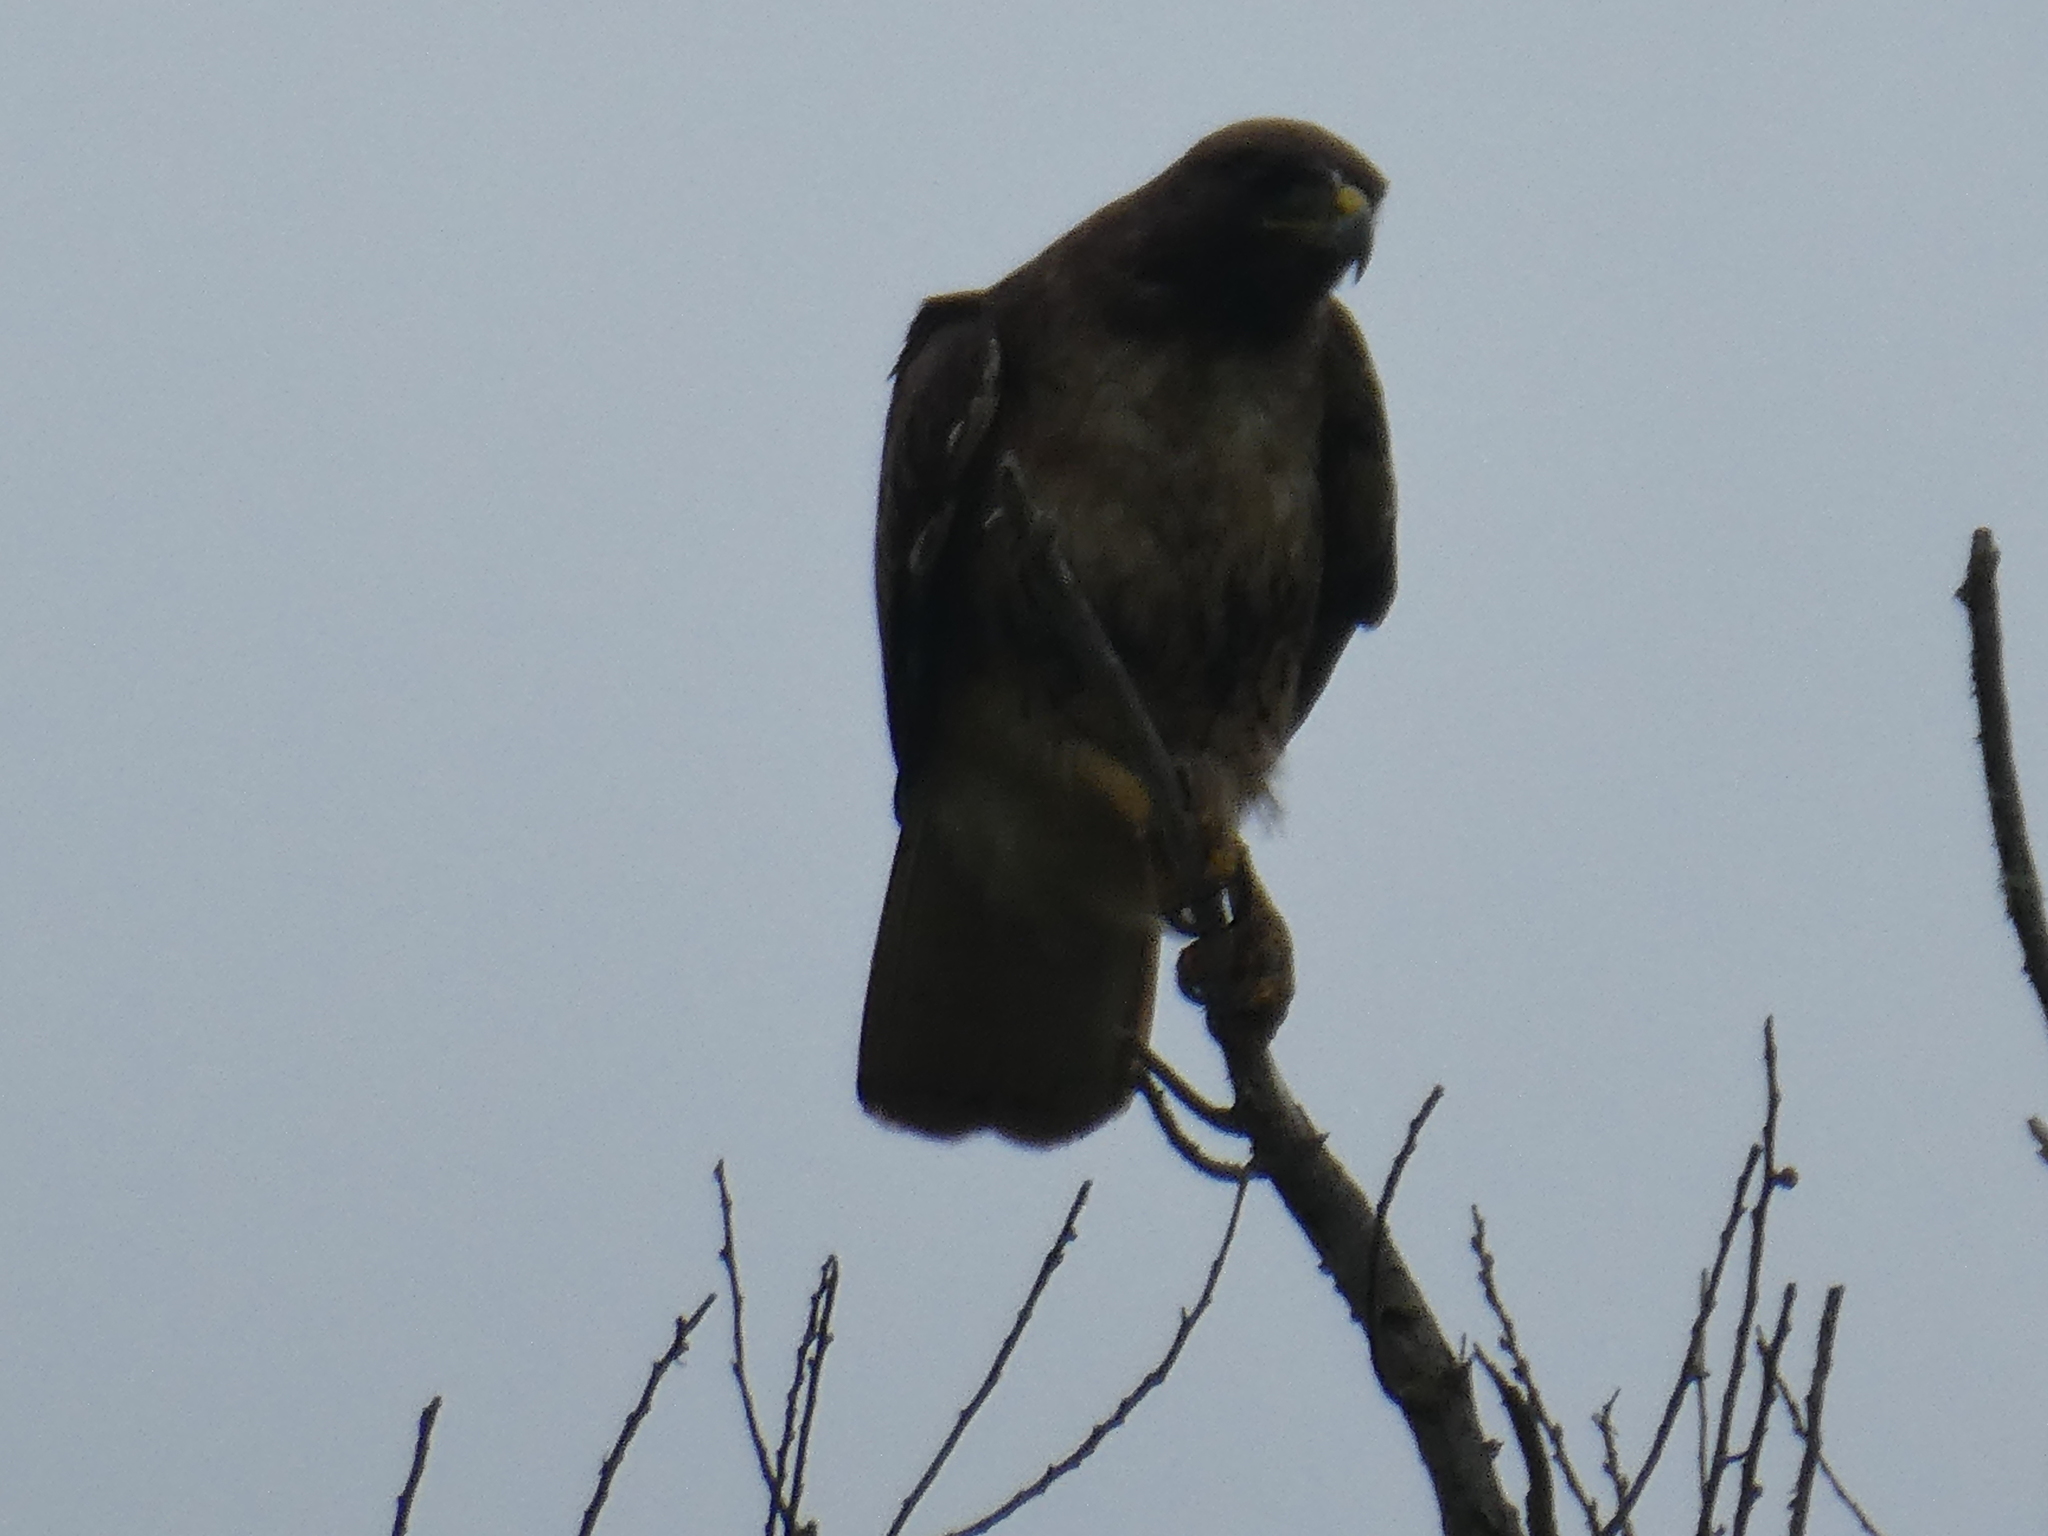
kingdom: Animalia
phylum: Chordata
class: Aves
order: Accipitriformes
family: Accipitridae
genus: Buteo
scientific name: Buteo jamaicensis
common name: Red-tailed hawk
